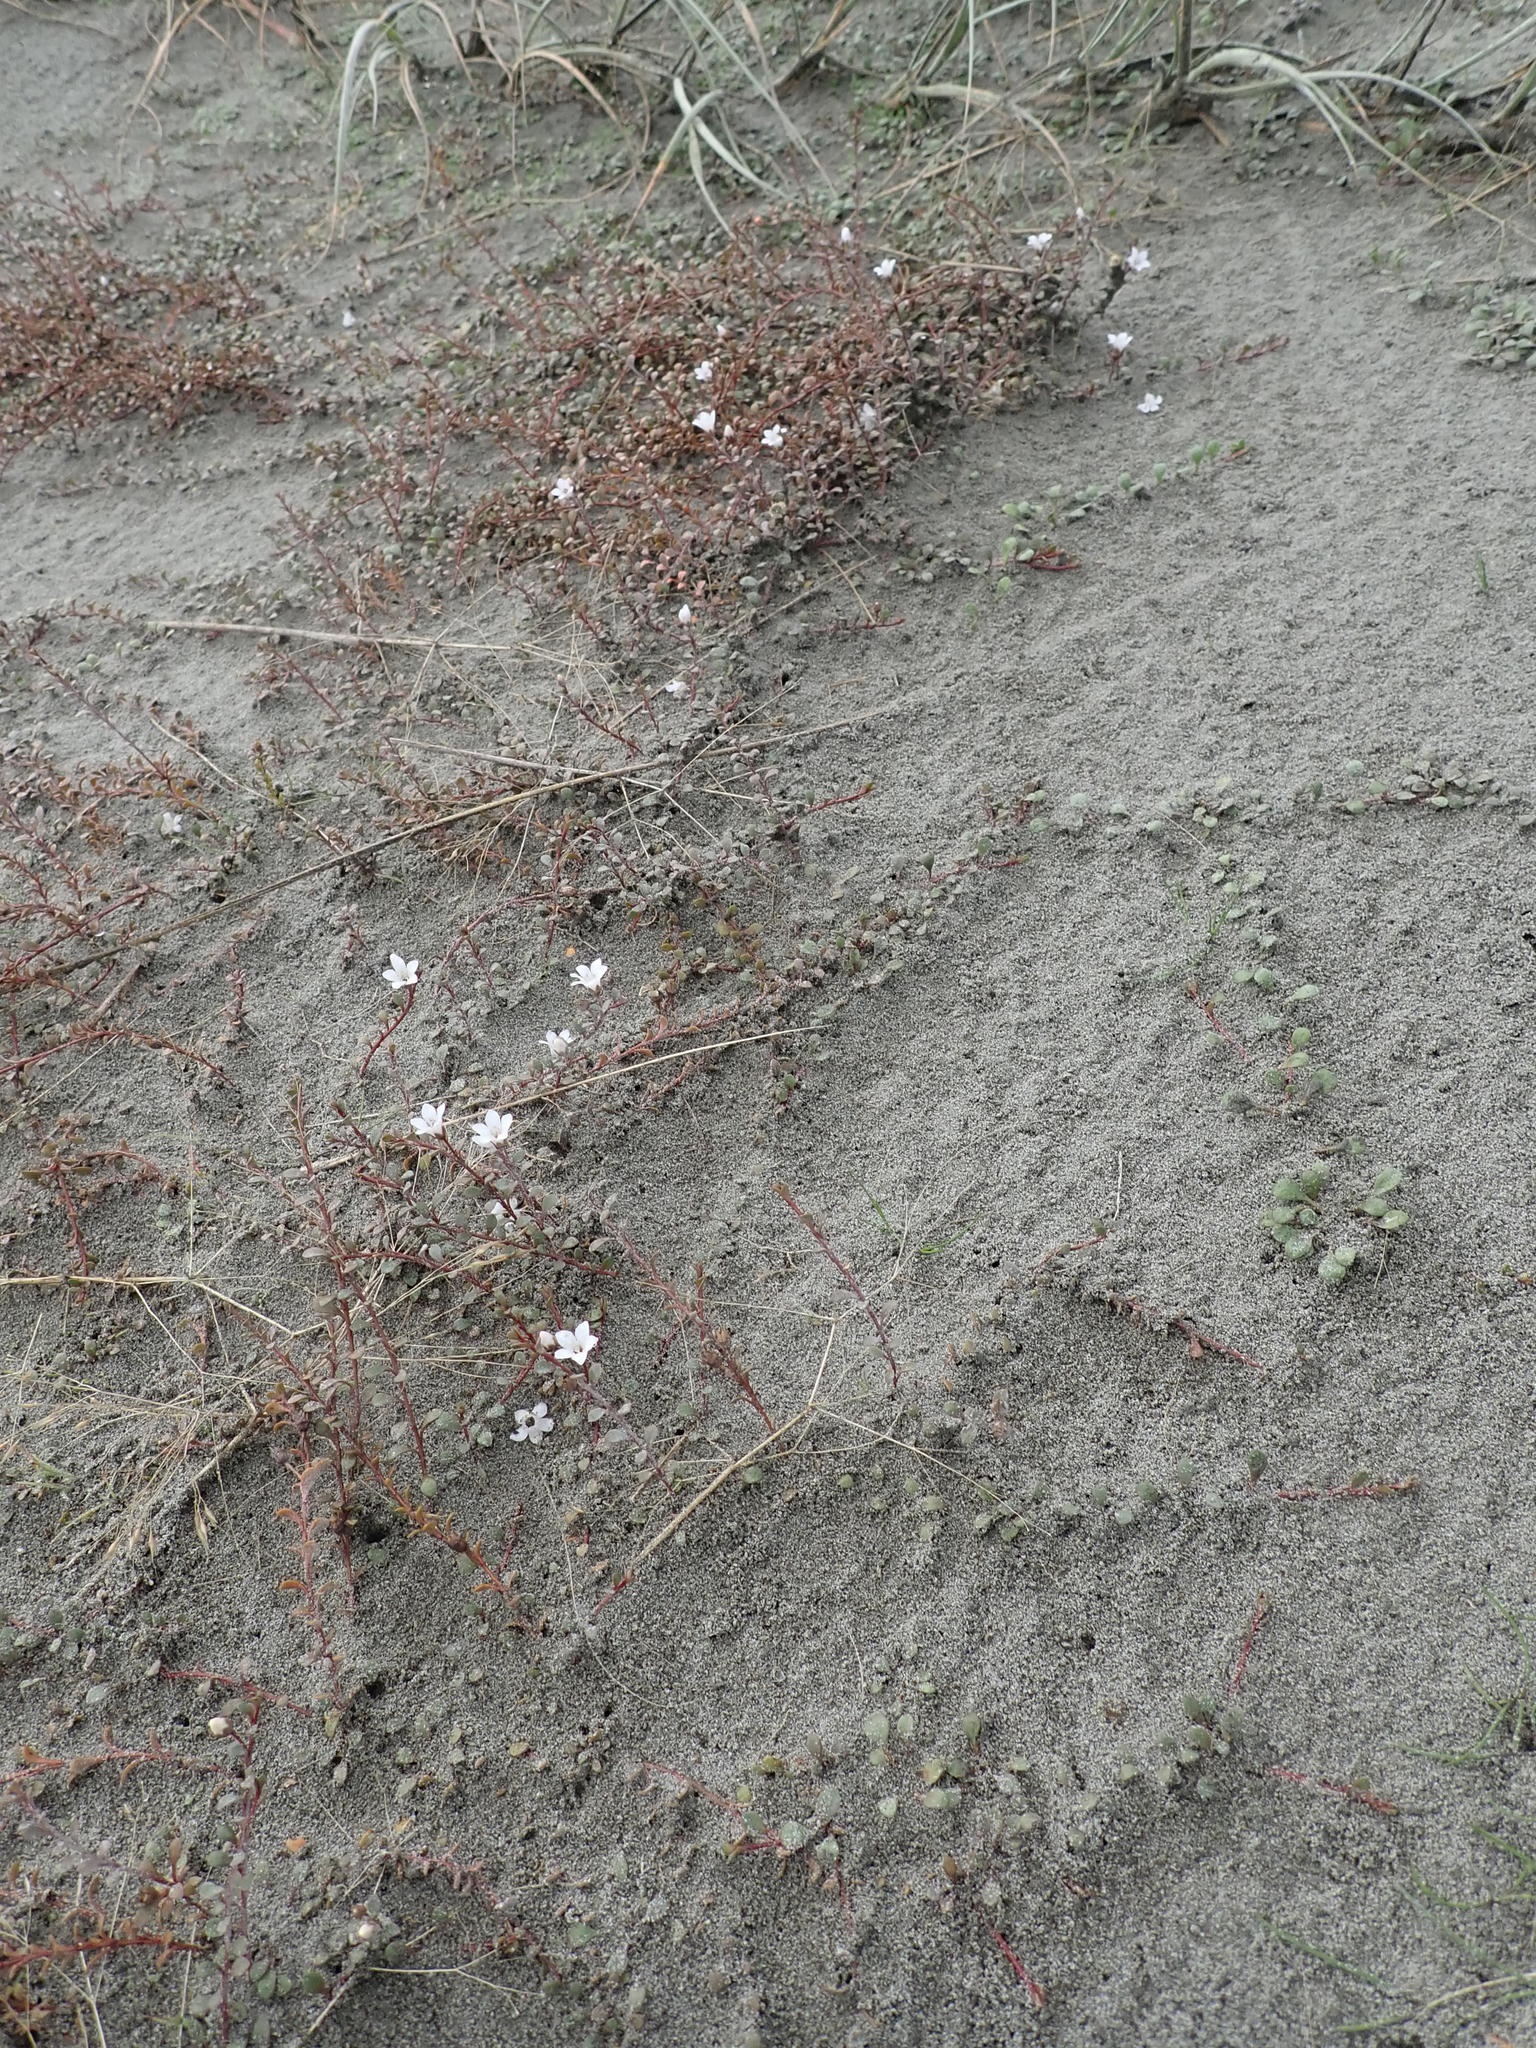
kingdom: Plantae
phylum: Tracheophyta
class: Magnoliopsida
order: Ericales
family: Primulaceae
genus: Samolus
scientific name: Samolus repens
